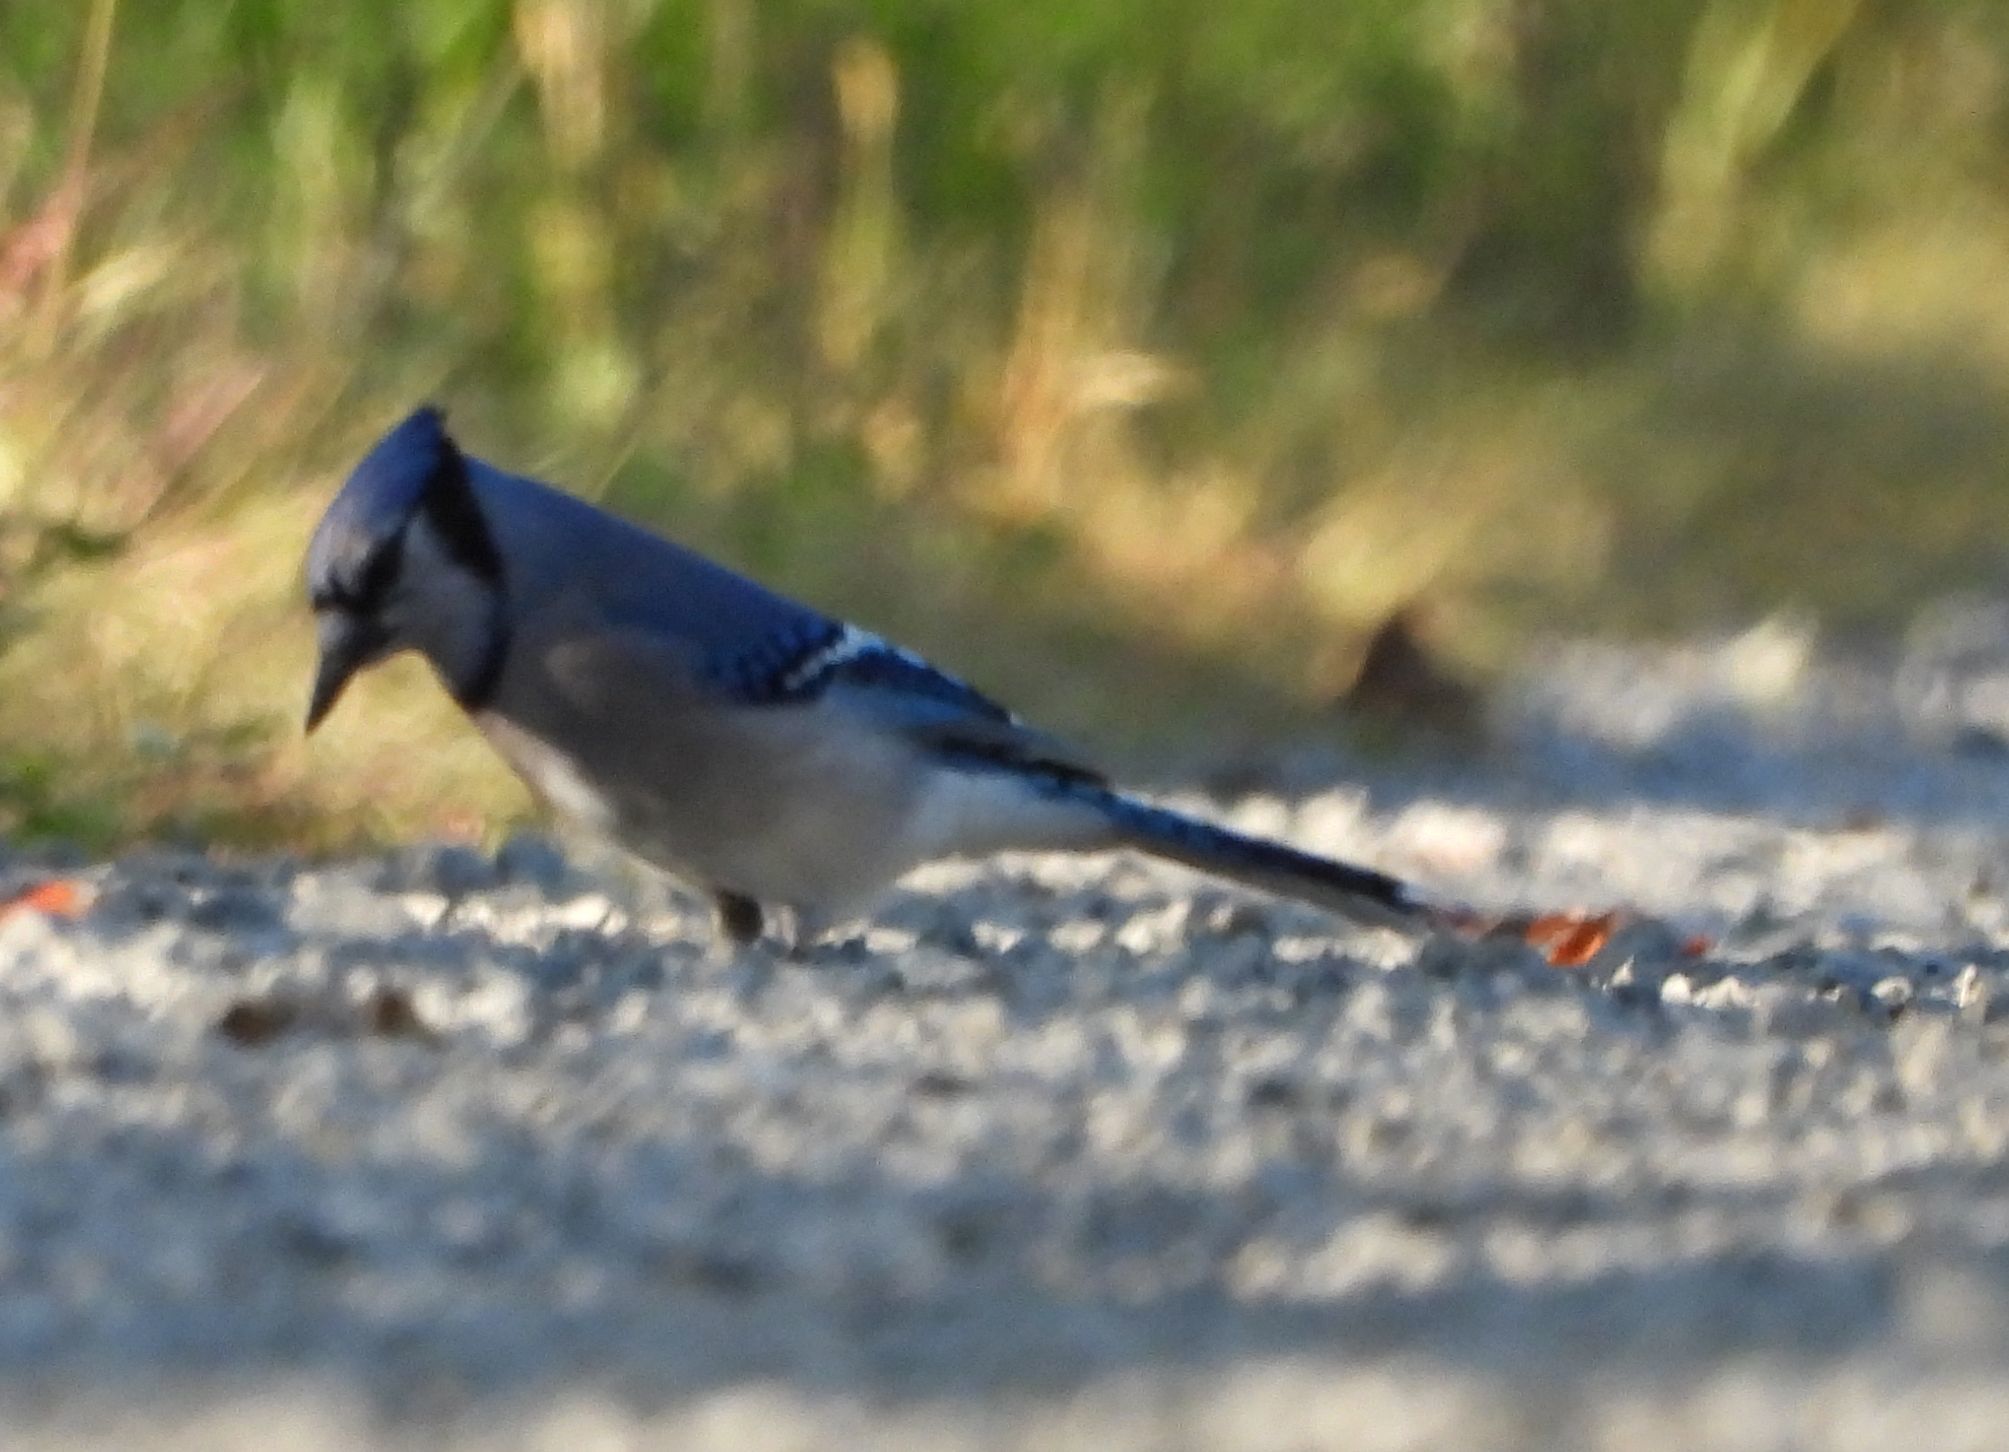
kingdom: Animalia
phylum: Chordata
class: Aves
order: Passeriformes
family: Corvidae
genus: Cyanocitta
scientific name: Cyanocitta cristata
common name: Blue jay
